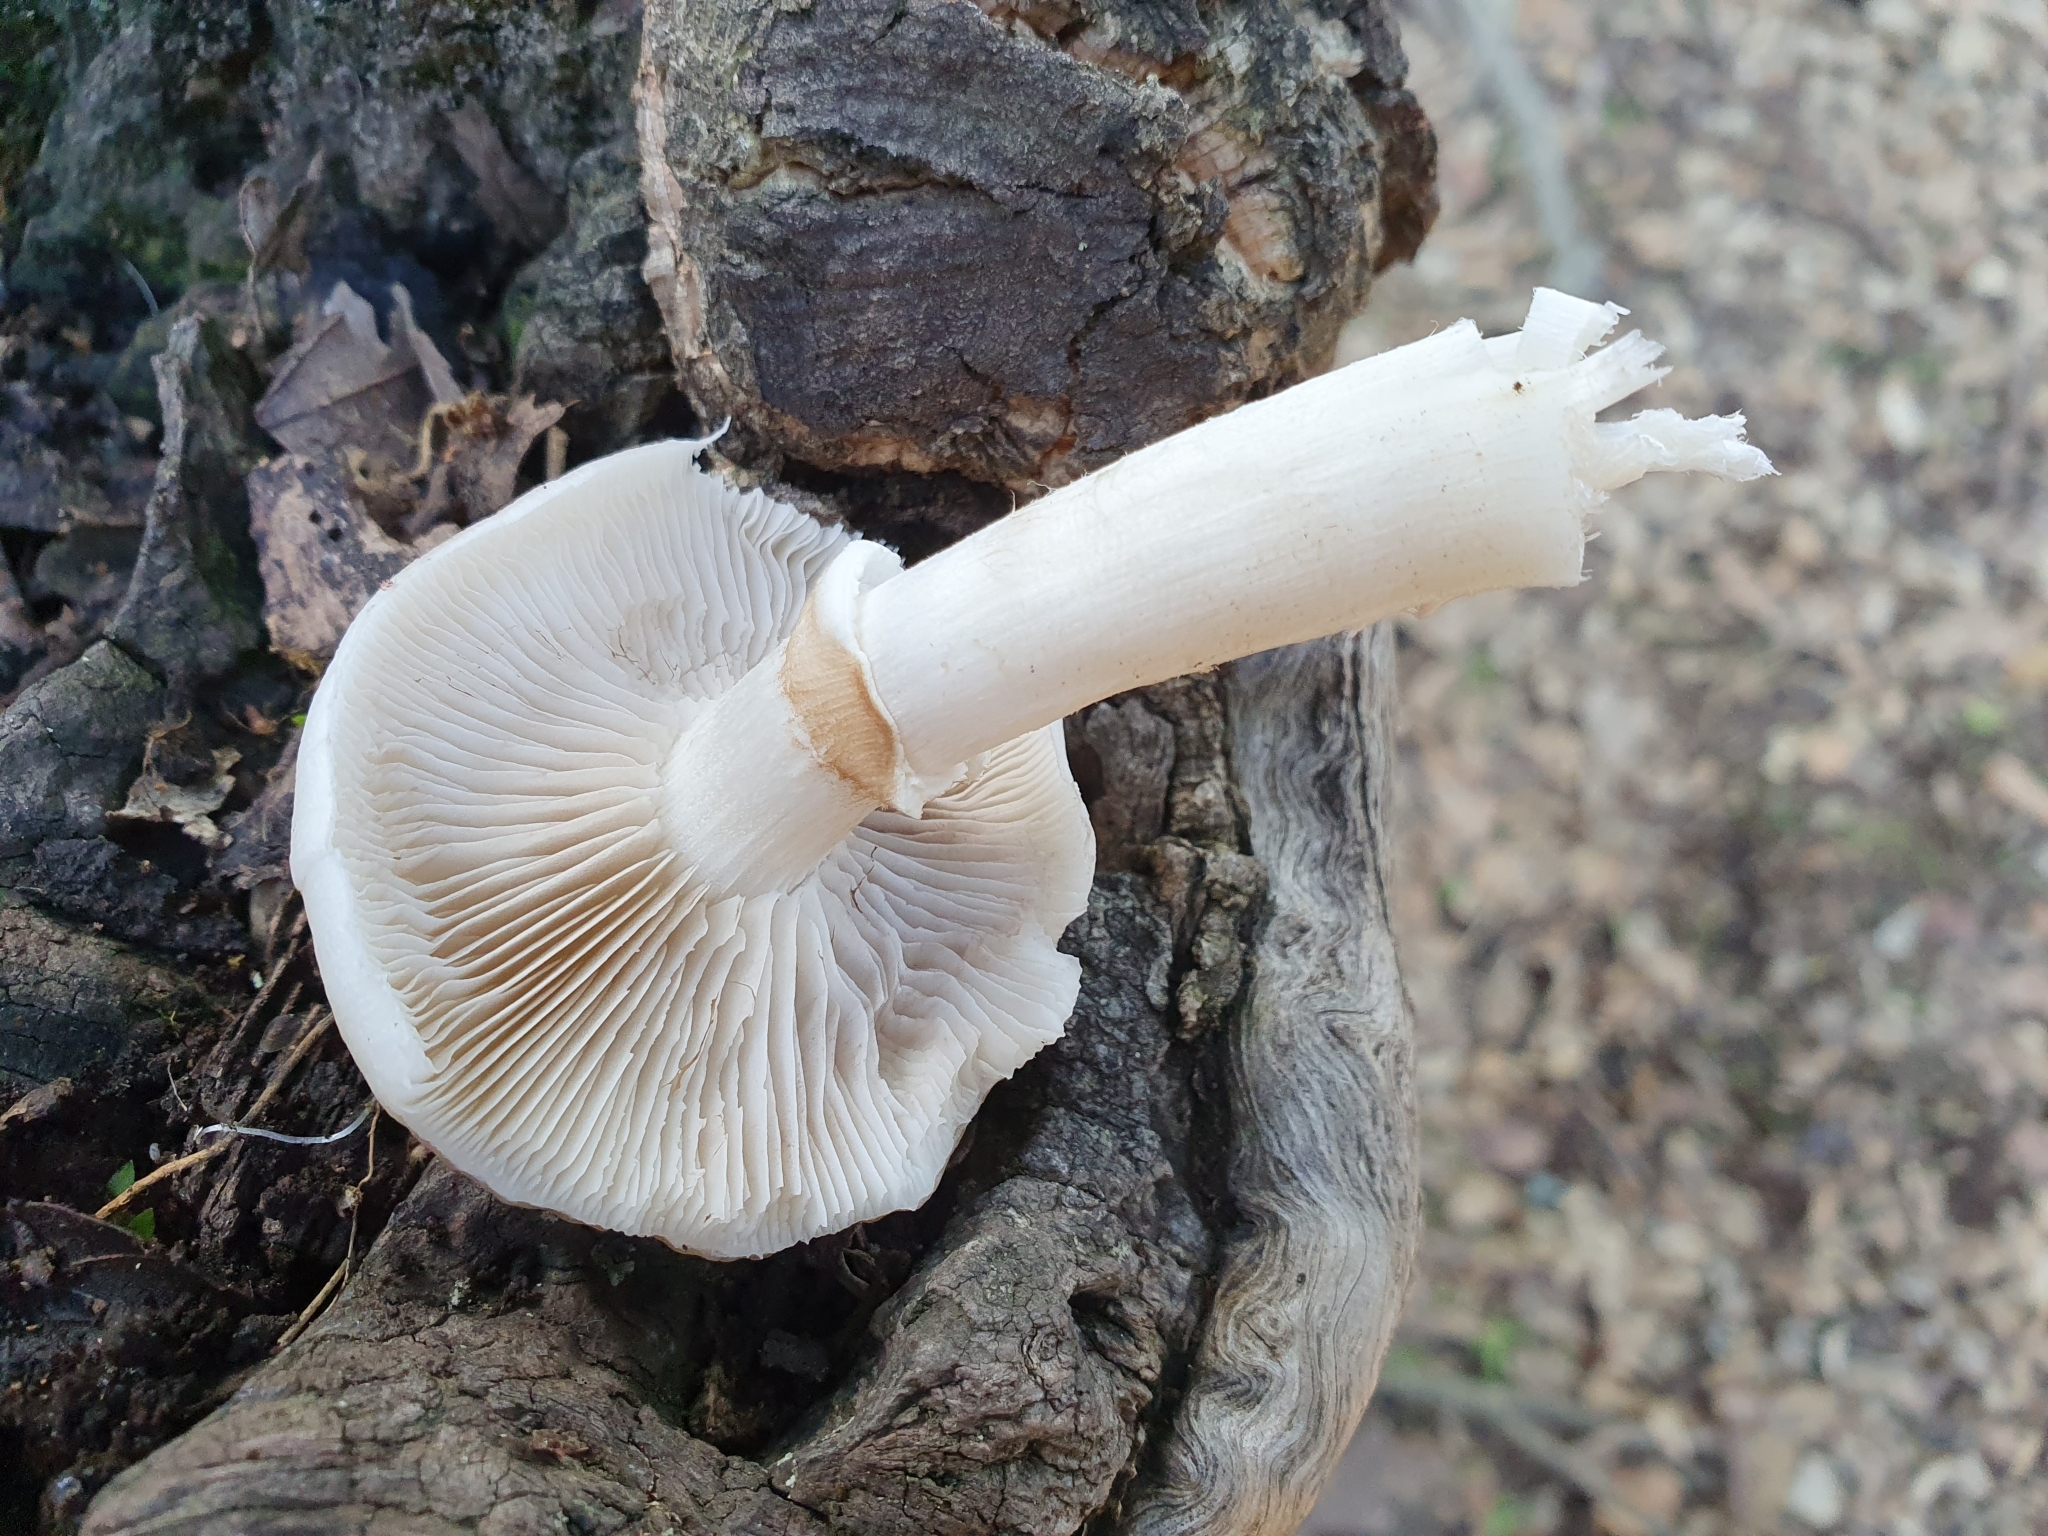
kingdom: Fungi
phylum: Basidiomycota
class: Agaricomycetes
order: Agaricales
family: Tubariaceae
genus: Cyclocybe
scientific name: Cyclocybe cylindracea
